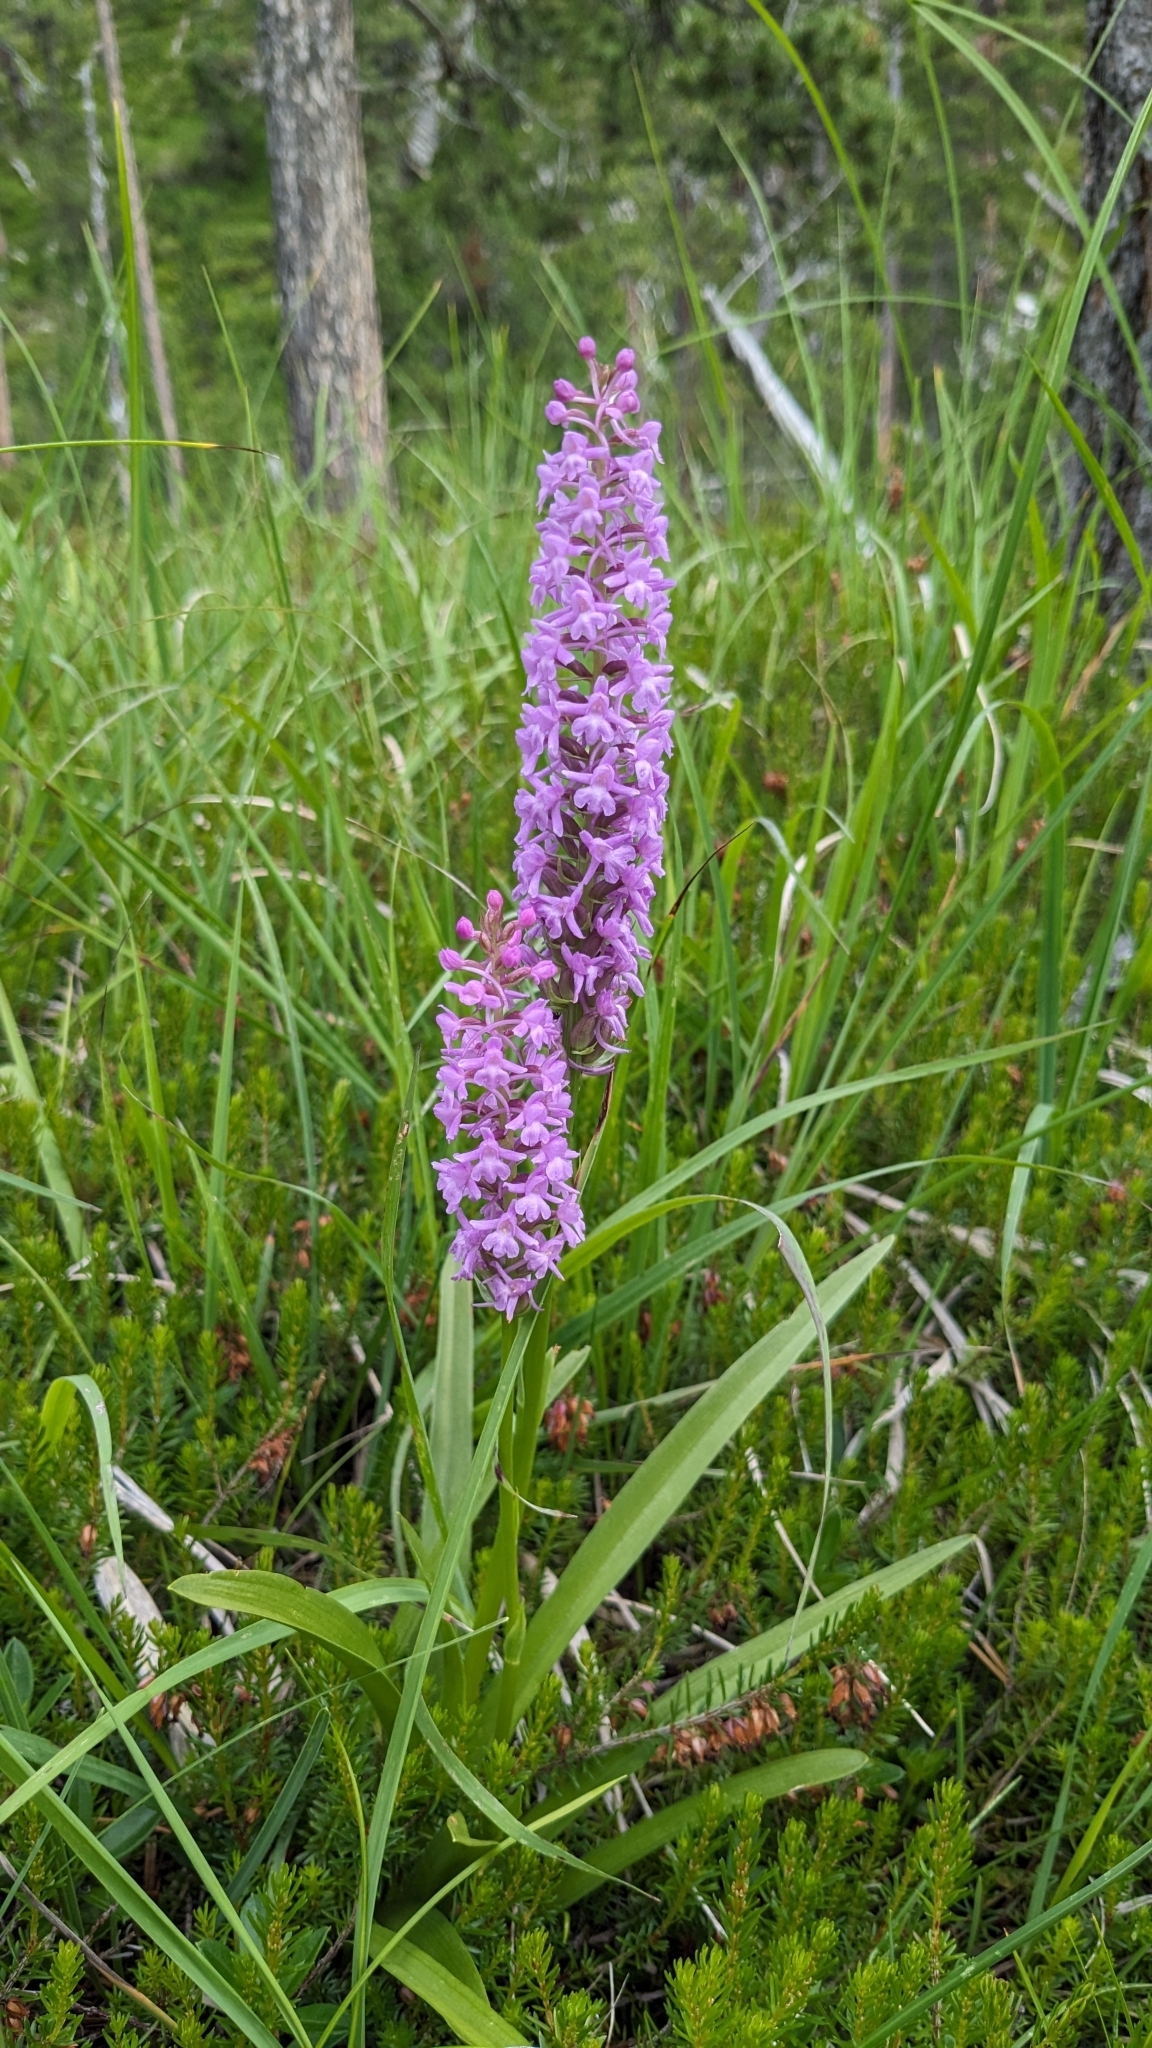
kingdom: Plantae
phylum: Tracheophyta
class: Liliopsida
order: Asparagales
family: Orchidaceae
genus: Gymnadenia
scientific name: Gymnadenia conopsea
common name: Fragrant orchid
